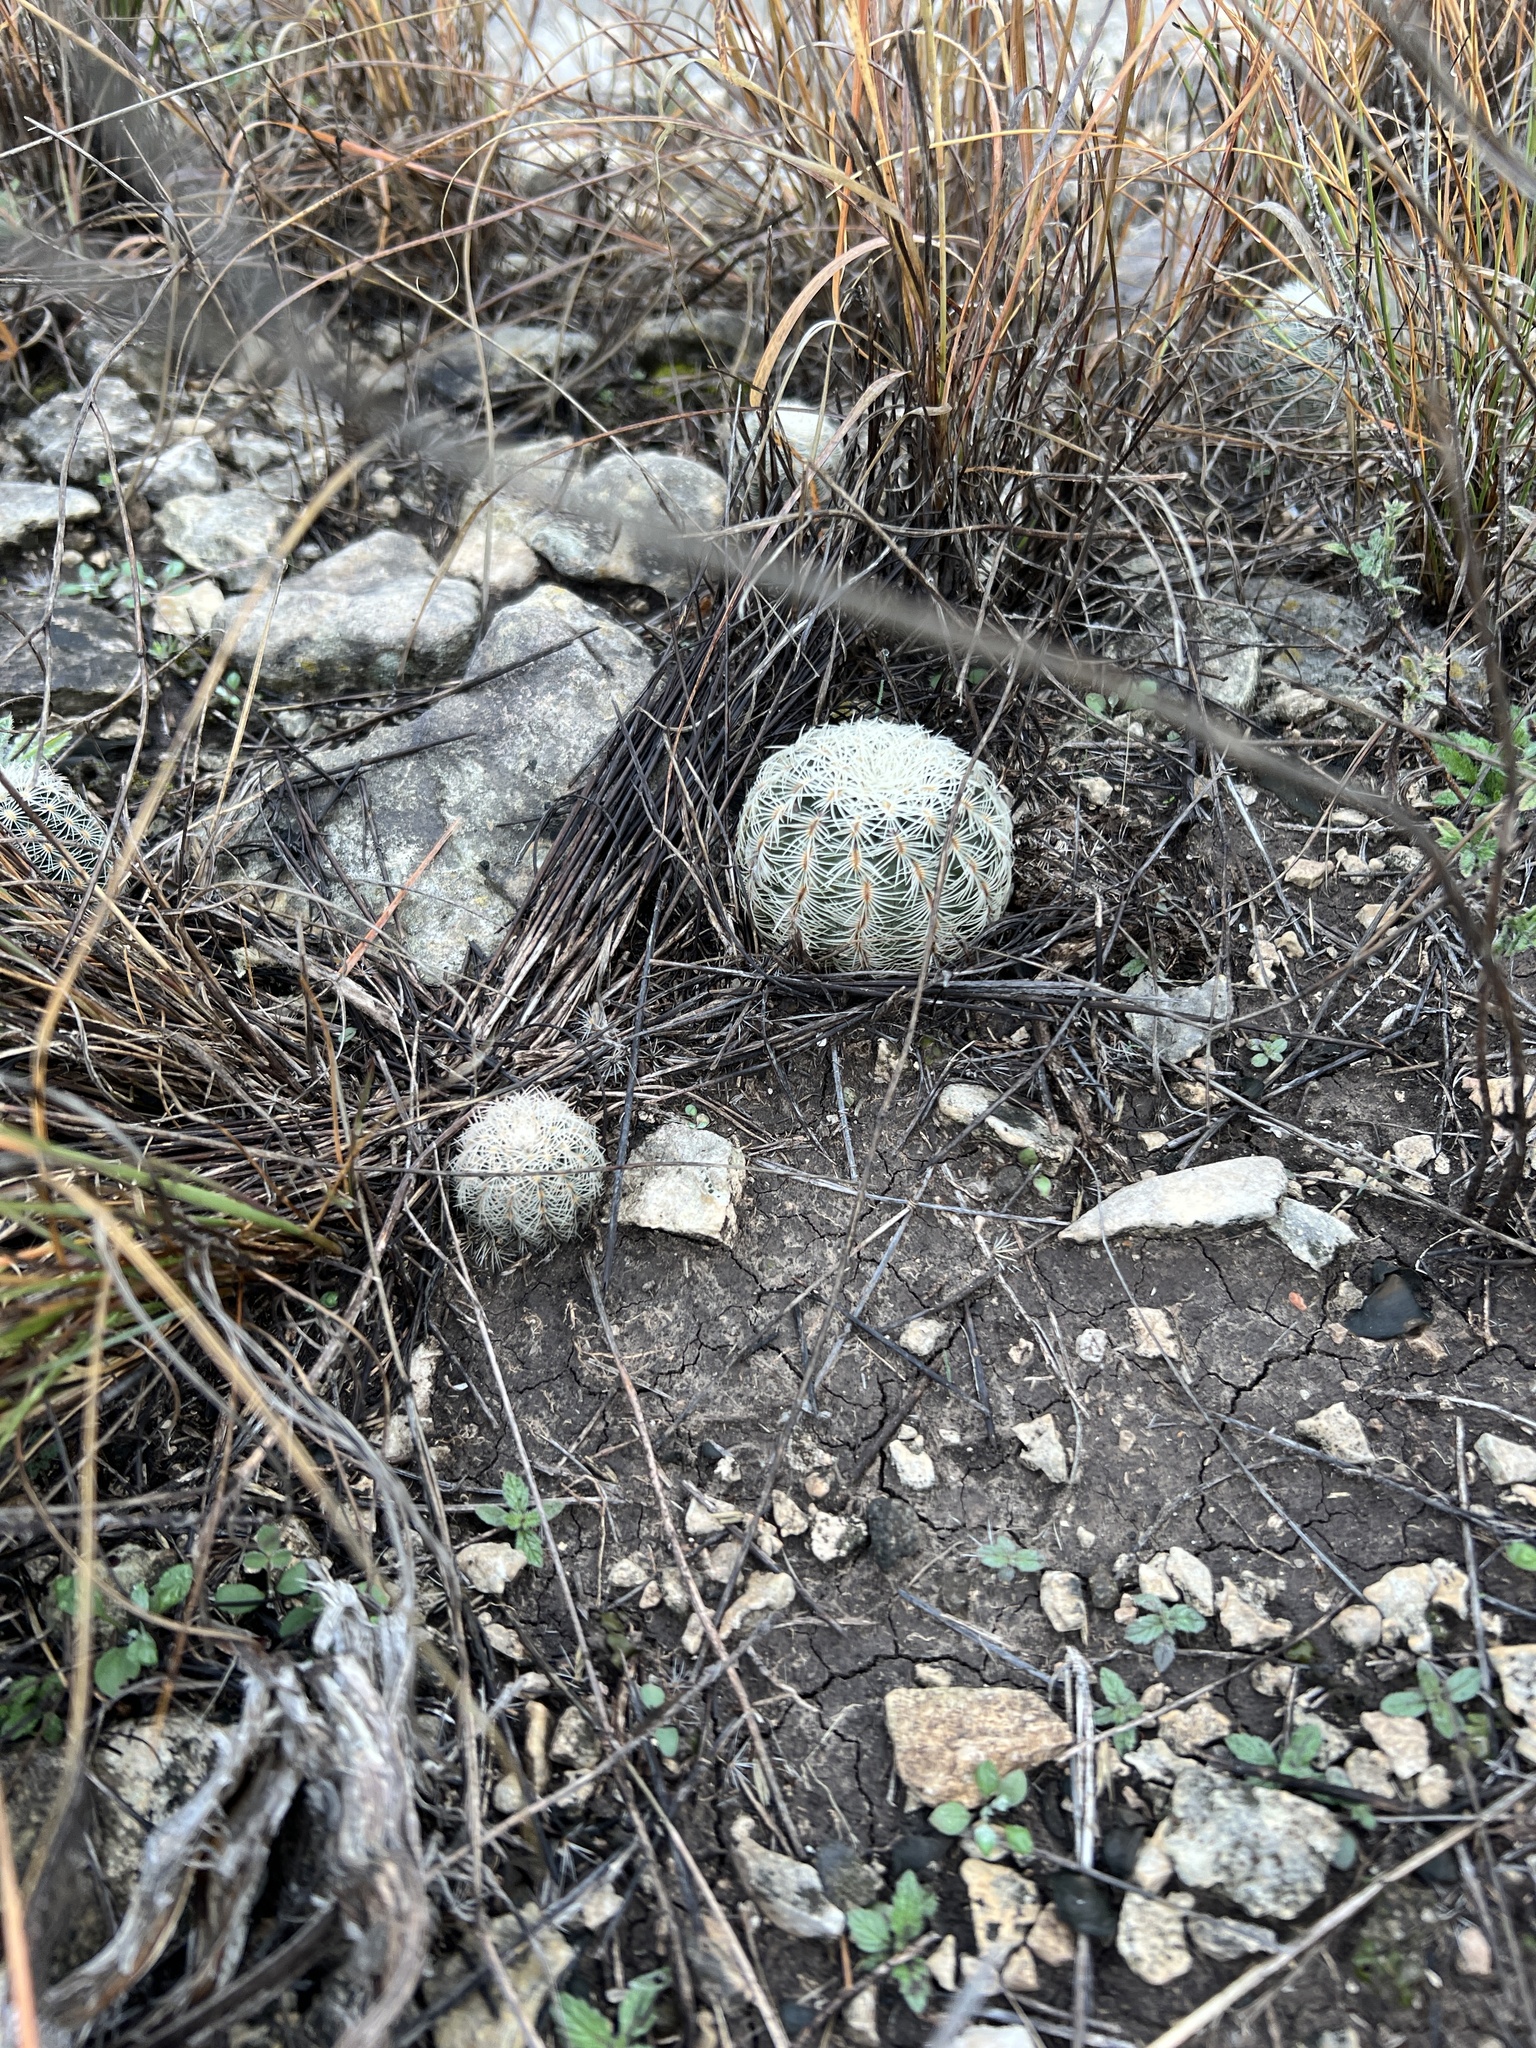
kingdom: Plantae
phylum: Tracheophyta
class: Magnoliopsida
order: Caryophyllales
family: Cactaceae
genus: Echinocereus
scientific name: Echinocereus reichenbachii
